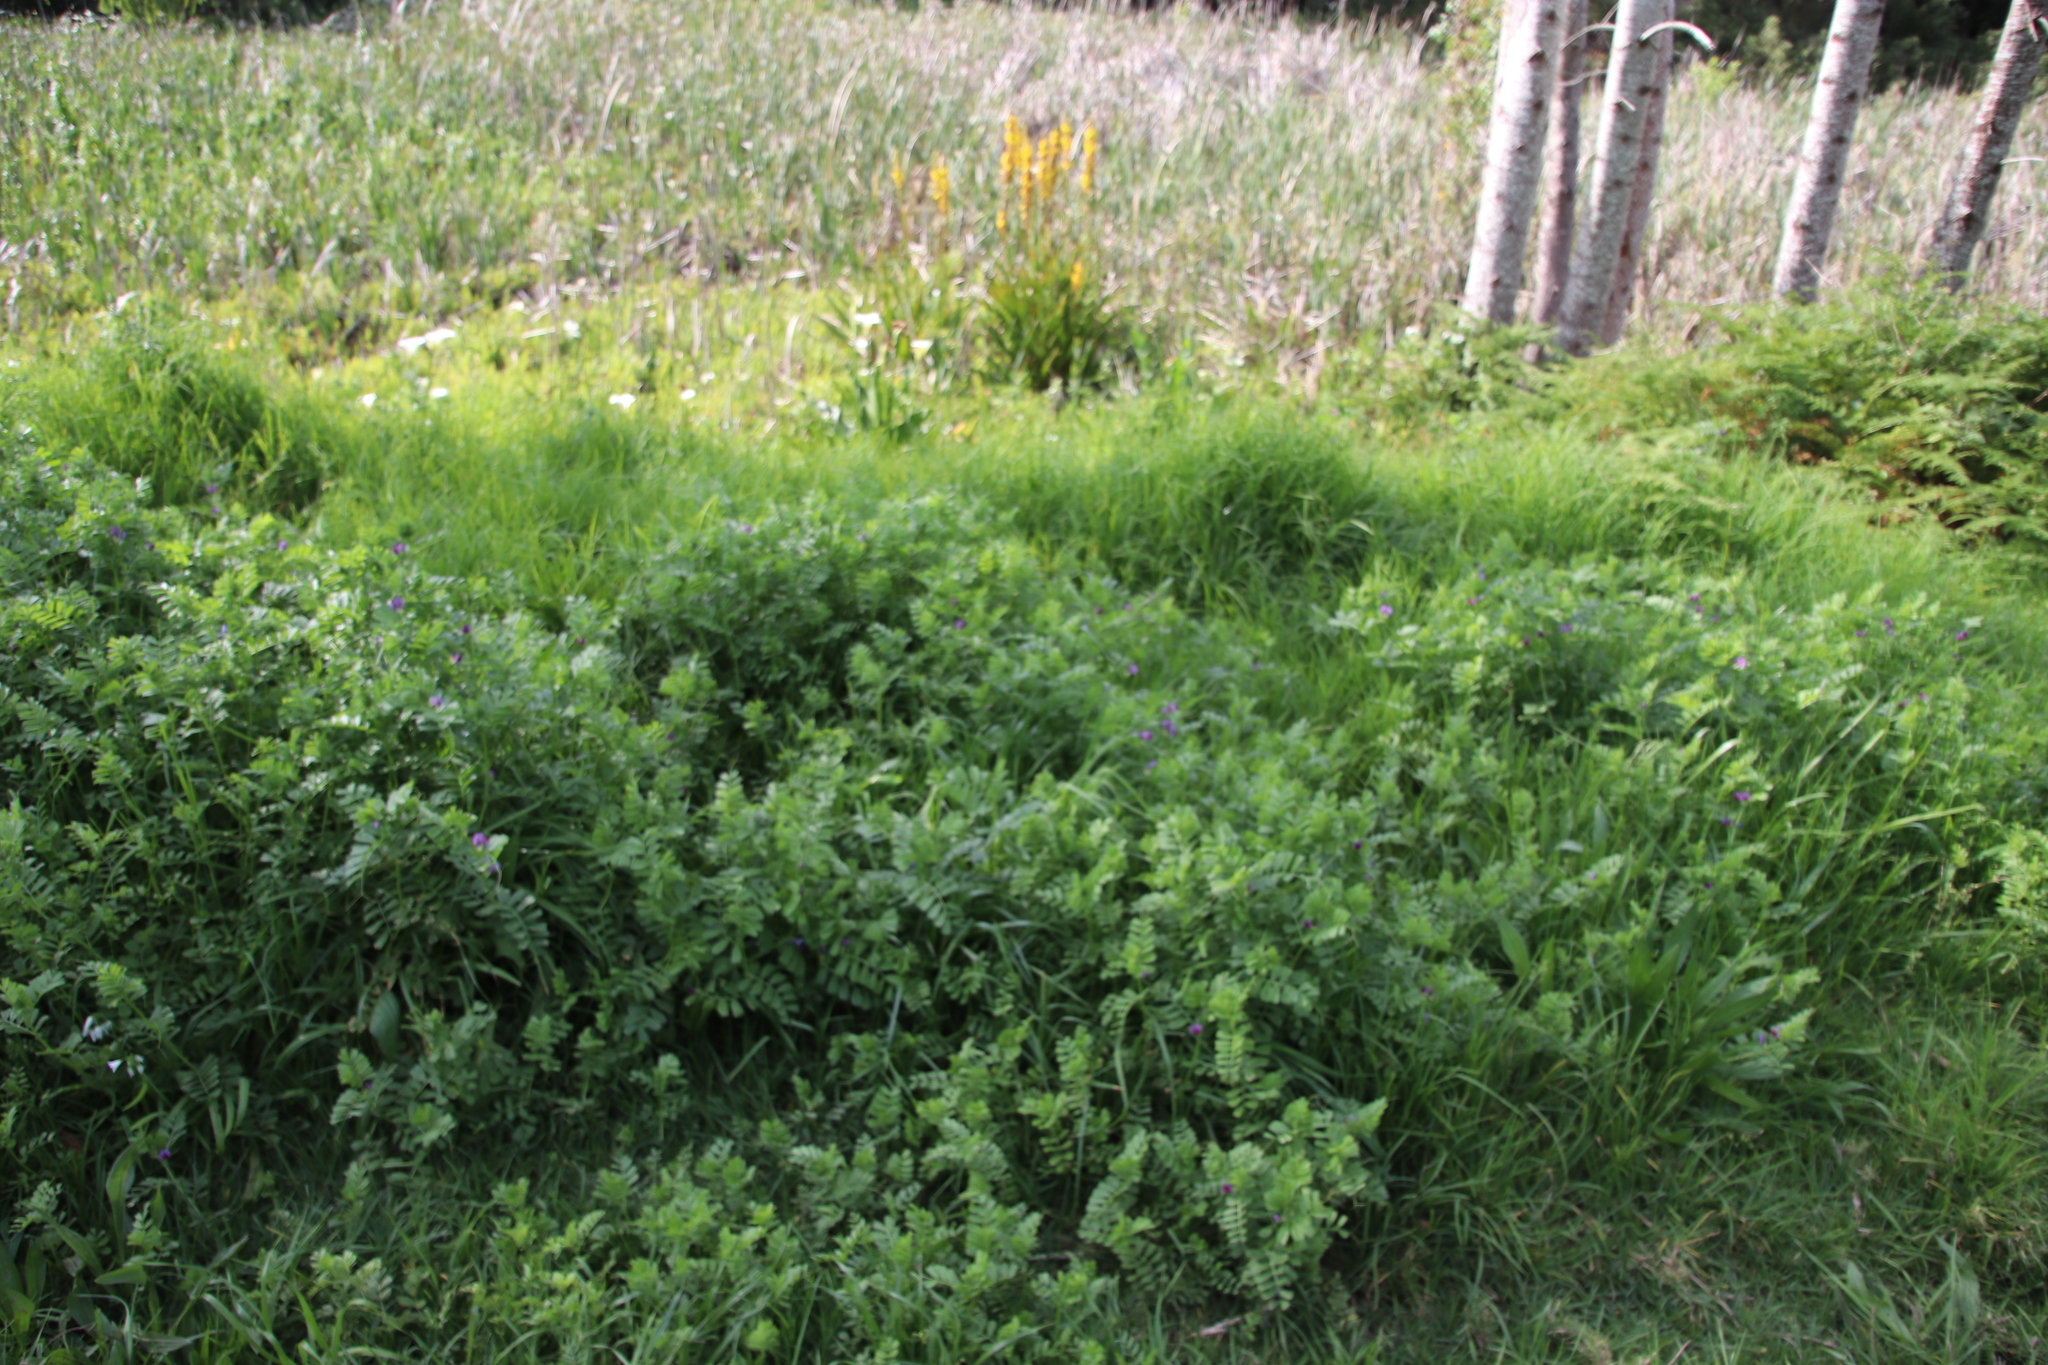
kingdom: Plantae
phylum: Tracheophyta
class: Magnoliopsida
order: Fabales
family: Fabaceae
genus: Vicia
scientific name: Vicia sativa
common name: Garden vetch
